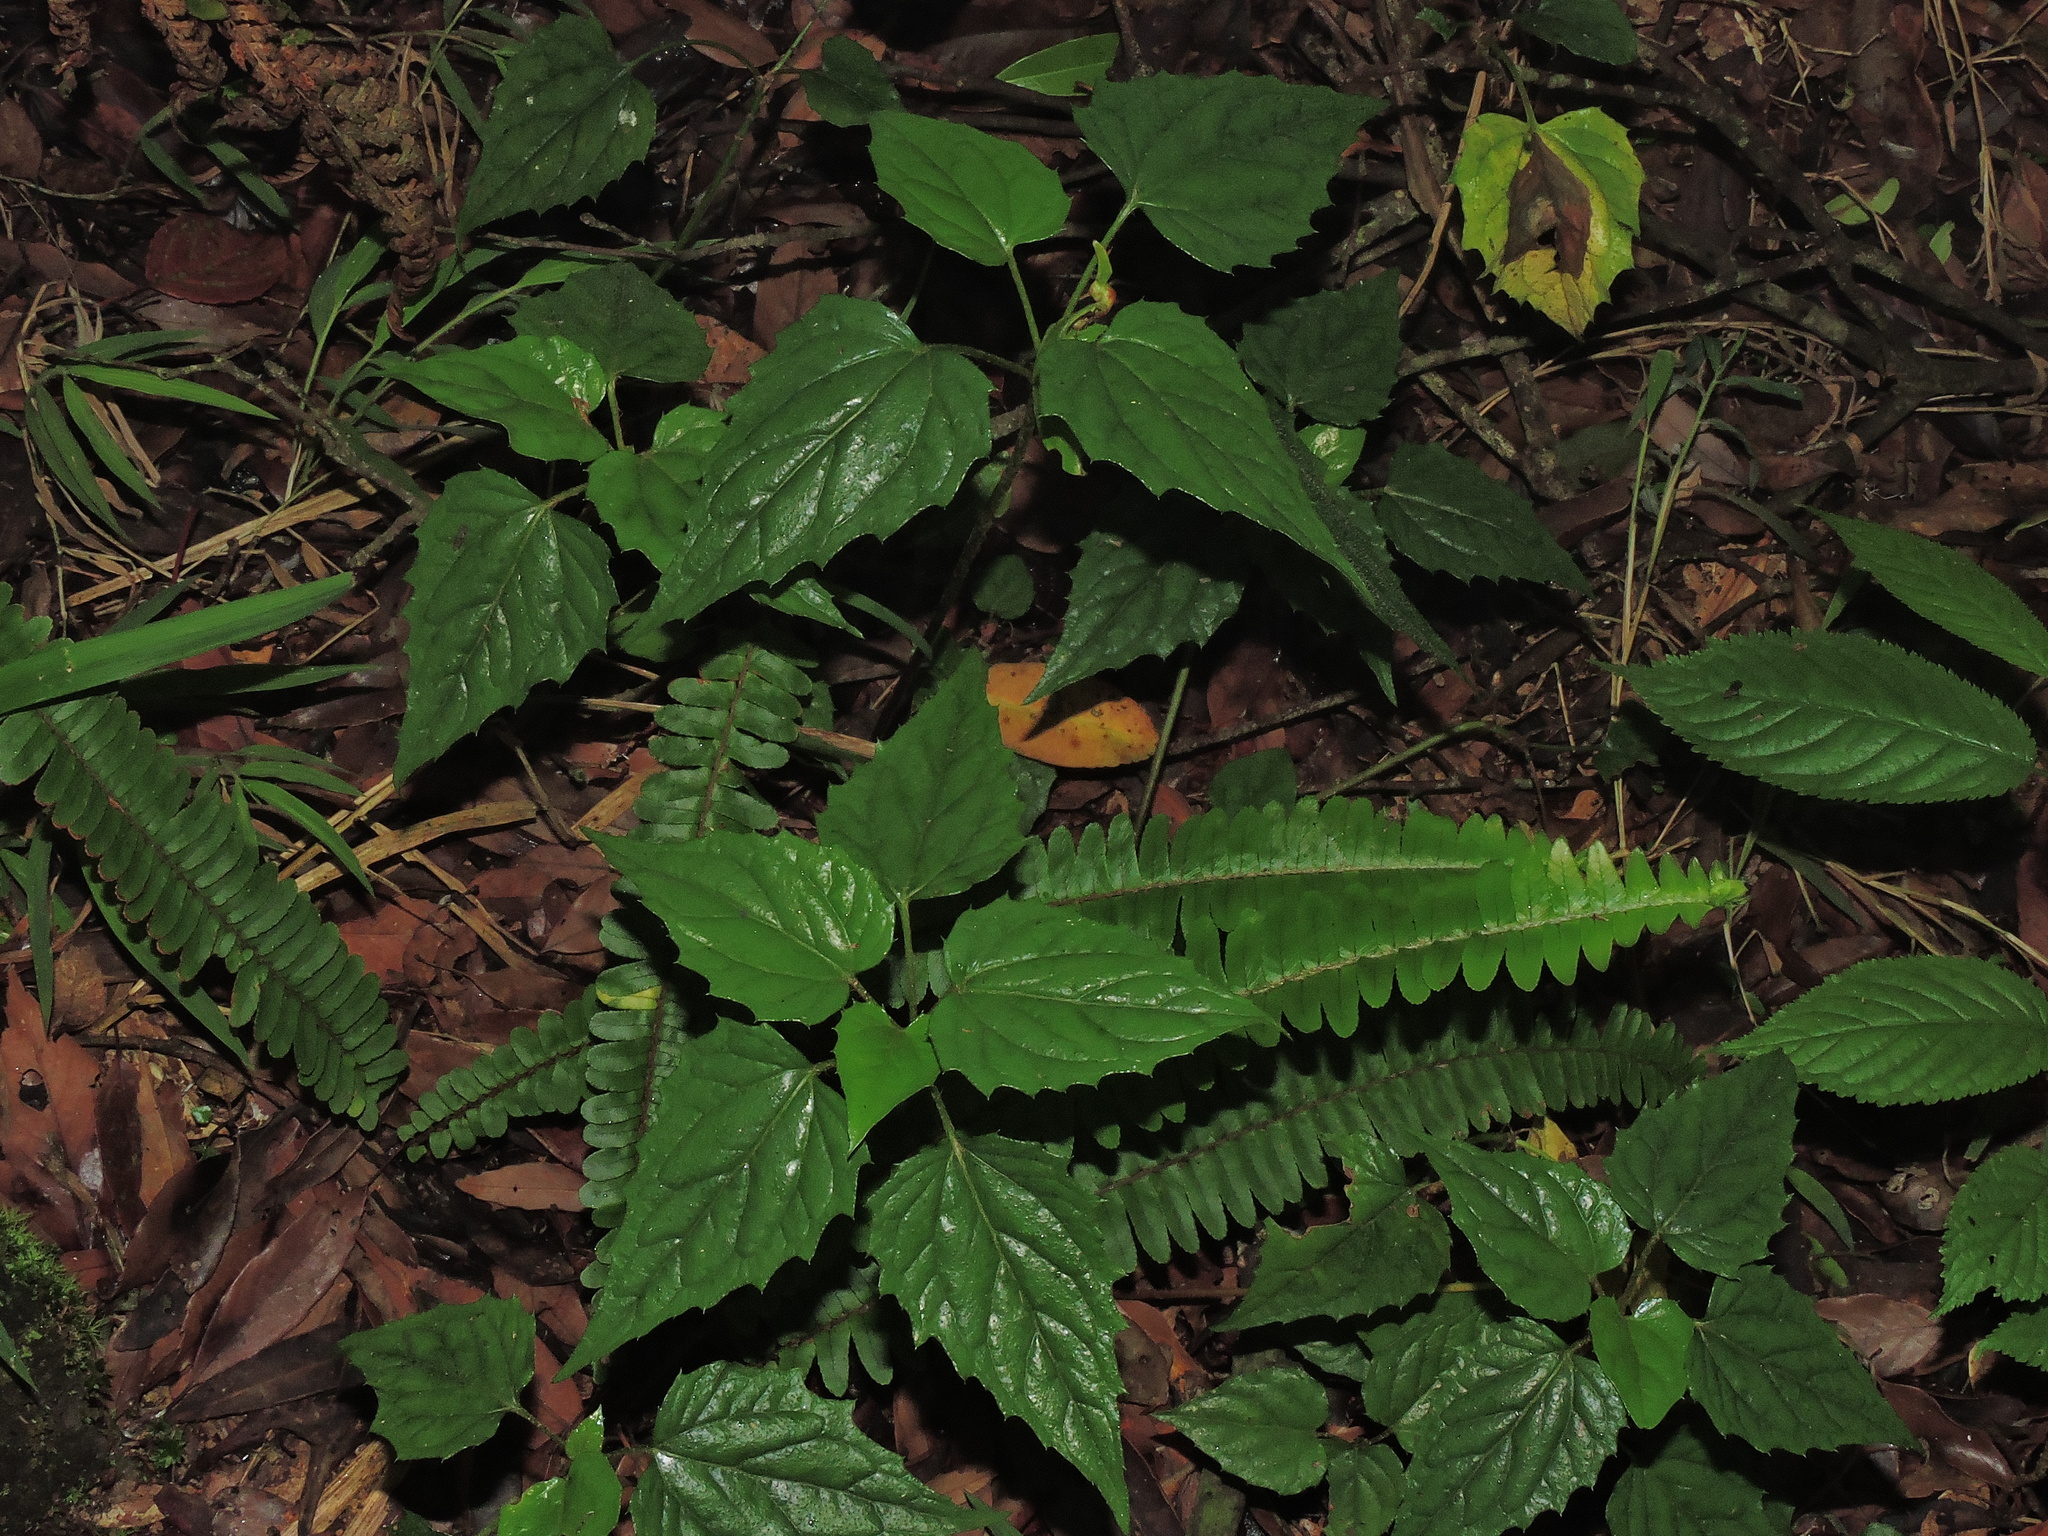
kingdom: Plantae
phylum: Tracheophyta
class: Magnoliopsida
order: Asterales
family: Asteraceae
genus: Ainsliaea
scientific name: Ainsliaea macroclinidioides
